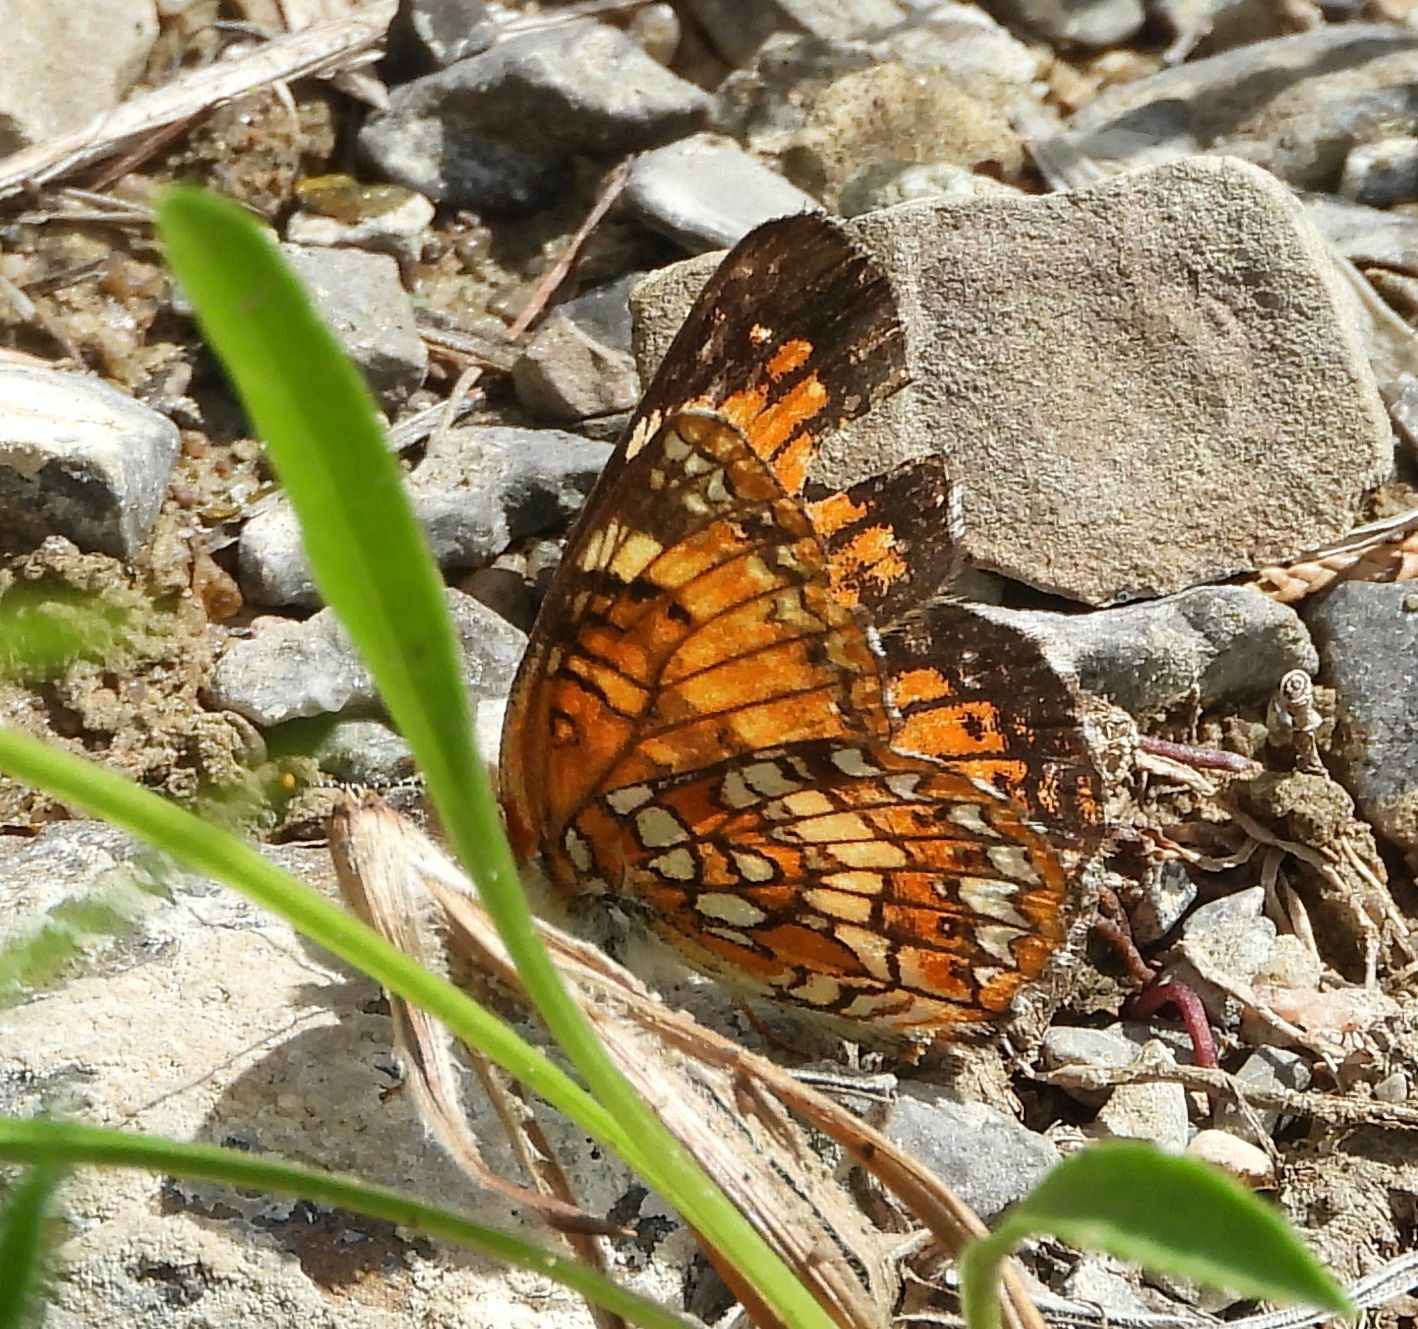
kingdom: Animalia
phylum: Arthropoda
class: Insecta
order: Lepidoptera
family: Nymphalidae
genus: Chlosyne
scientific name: Chlosyne harrisii
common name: Harris's checkerspot
